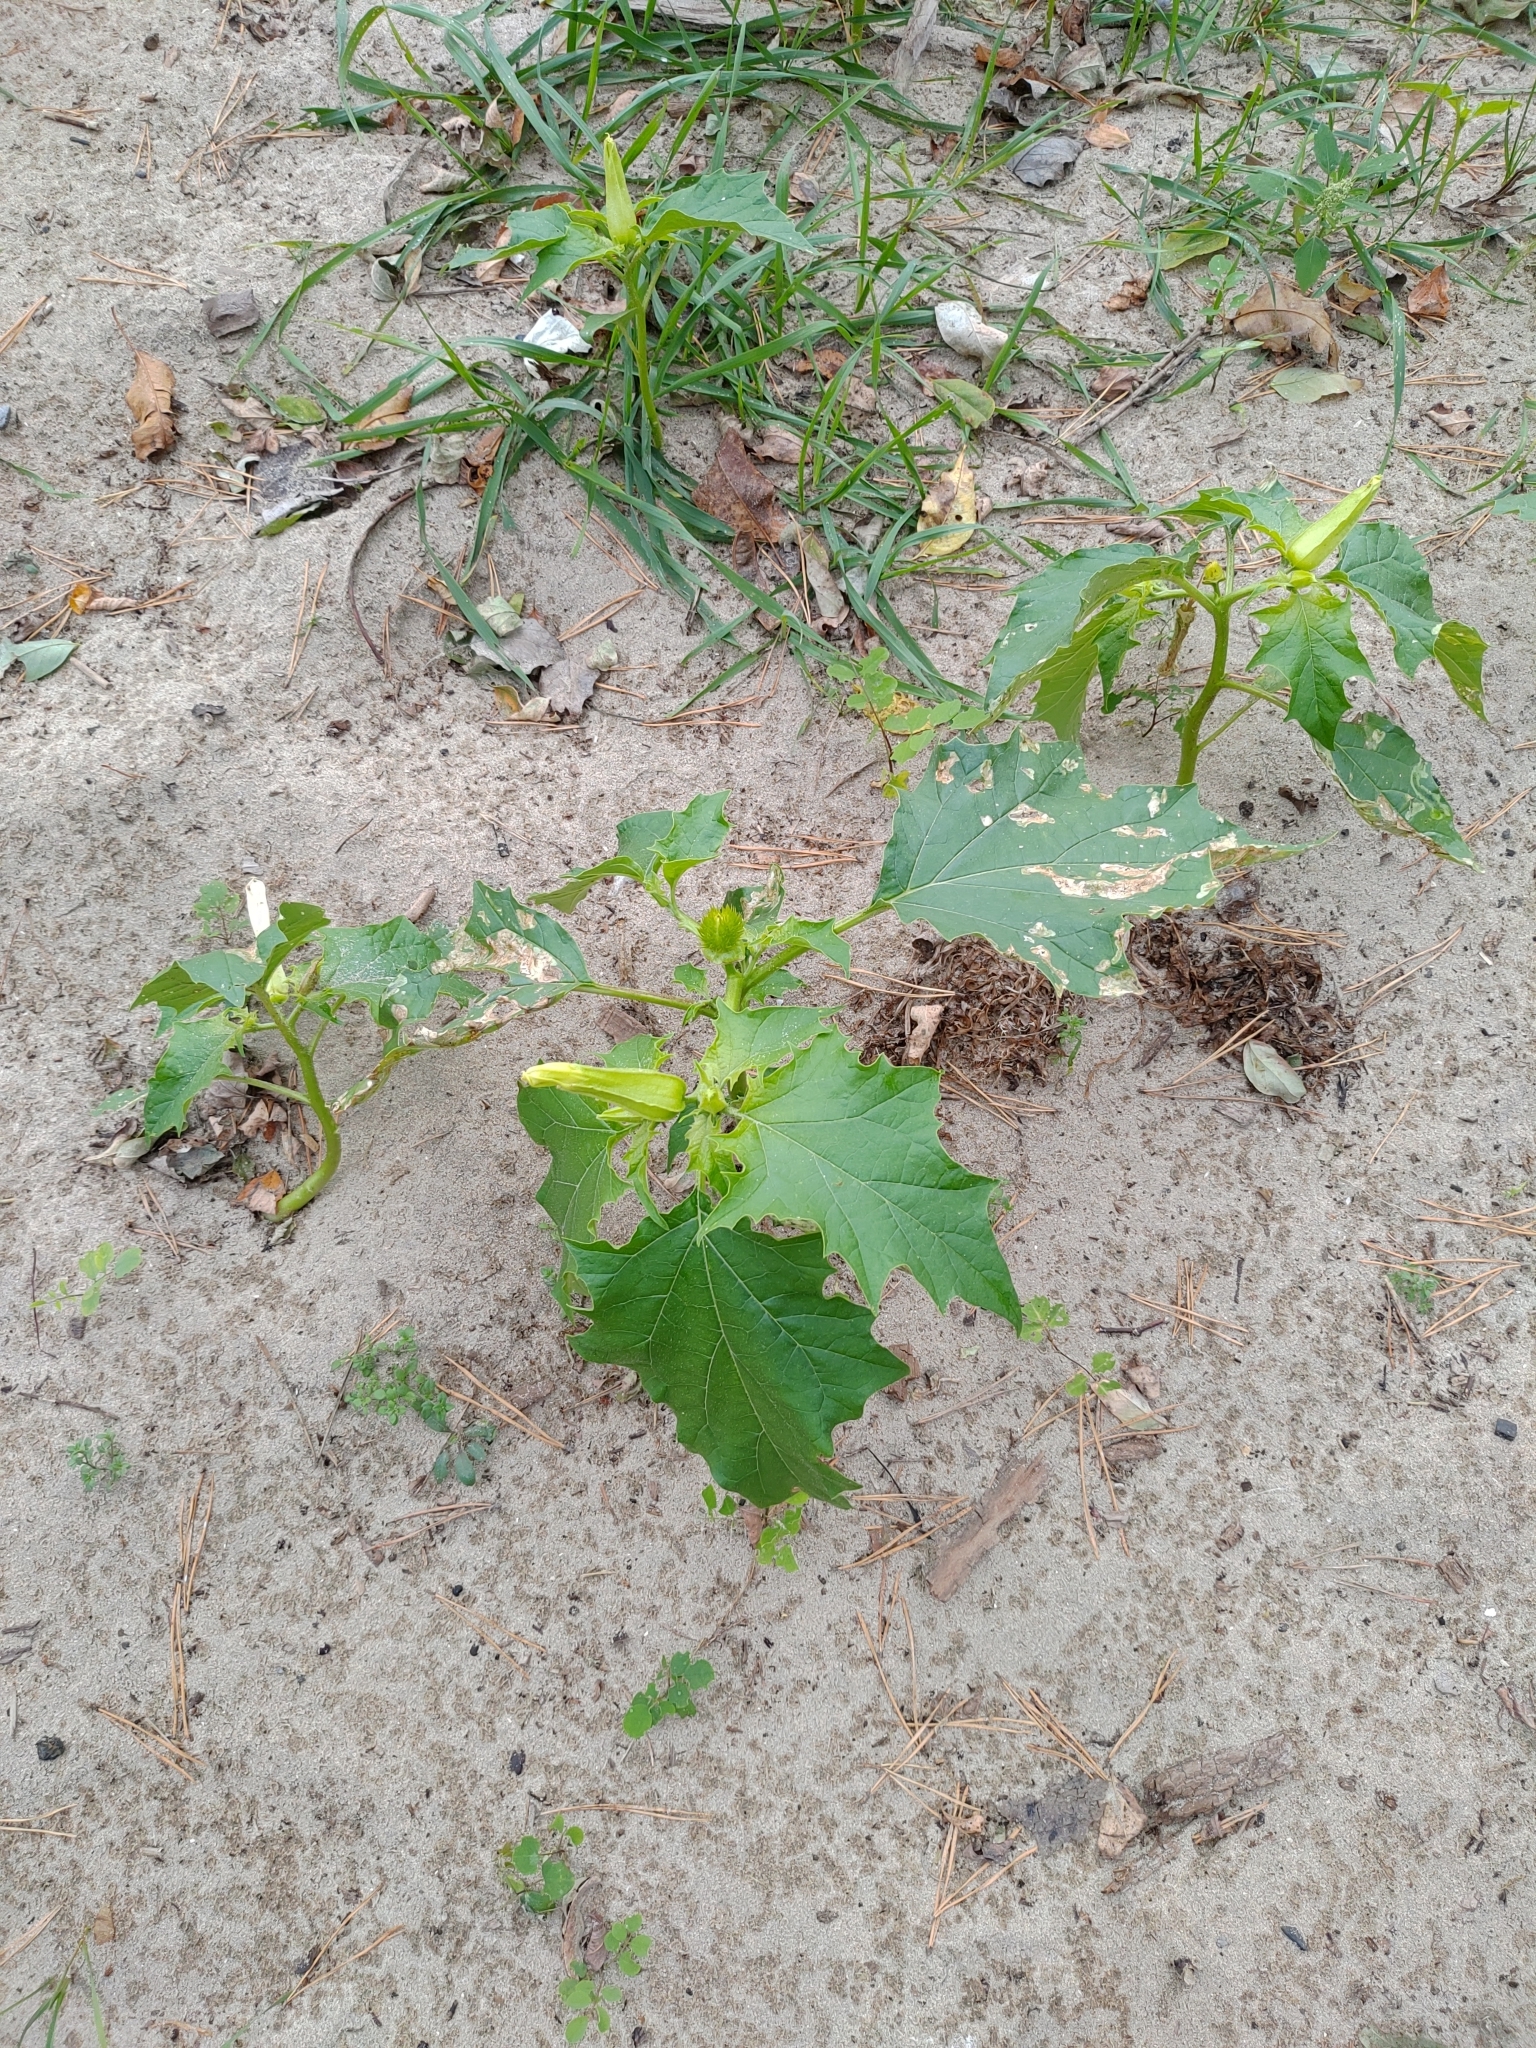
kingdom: Plantae
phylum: Tracheophyta
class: Magnoliopsida
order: Solanales
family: Solanaceae
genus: Datura
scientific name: Datura stramonium
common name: Thorn-apple
